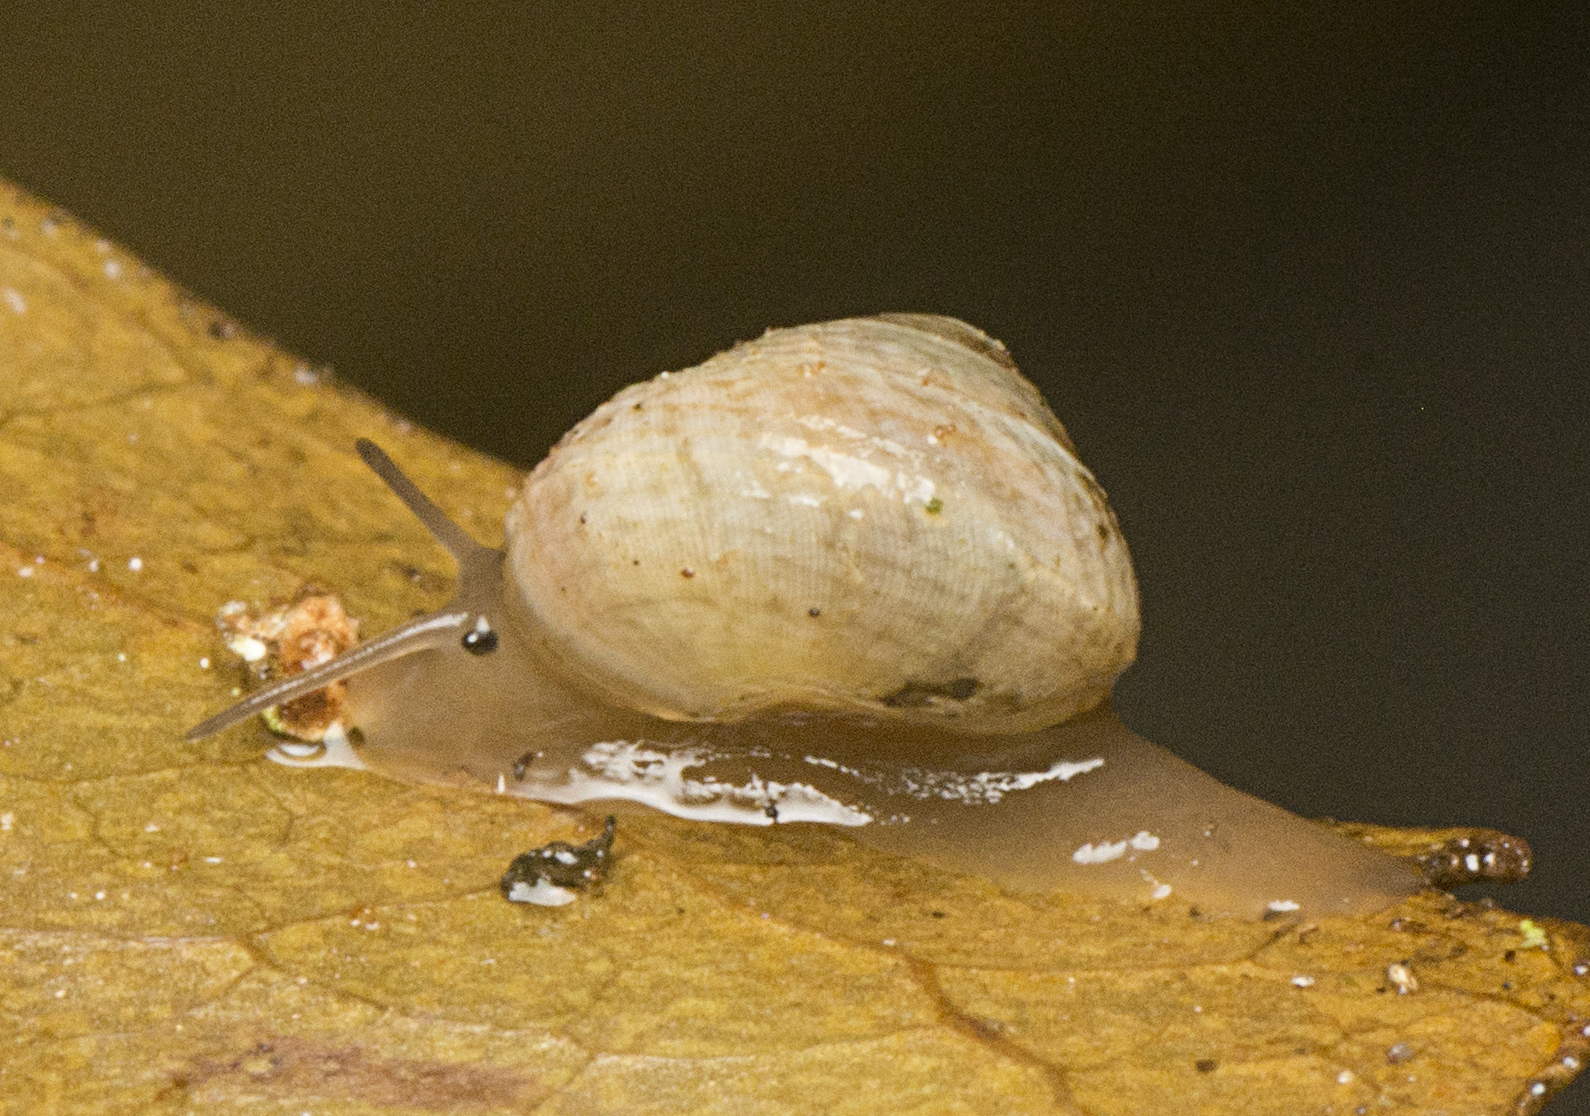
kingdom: Animalia
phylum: Mollusca
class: Gastropoda
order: Cycloneritida
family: Helicinidae
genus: Pleuropoma
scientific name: Pleuropoma draytonensis
